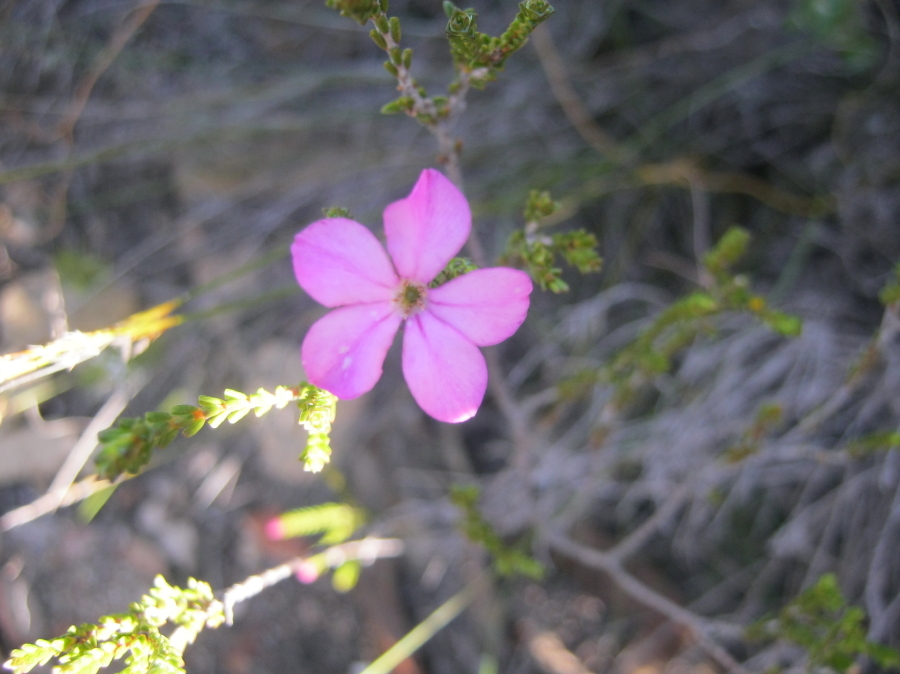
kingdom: Plantae
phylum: Tracheophyta
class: Magnoliopsida
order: Sapindales
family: Rutaceae
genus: Acmadenia
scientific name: Acmadenia sheilae
